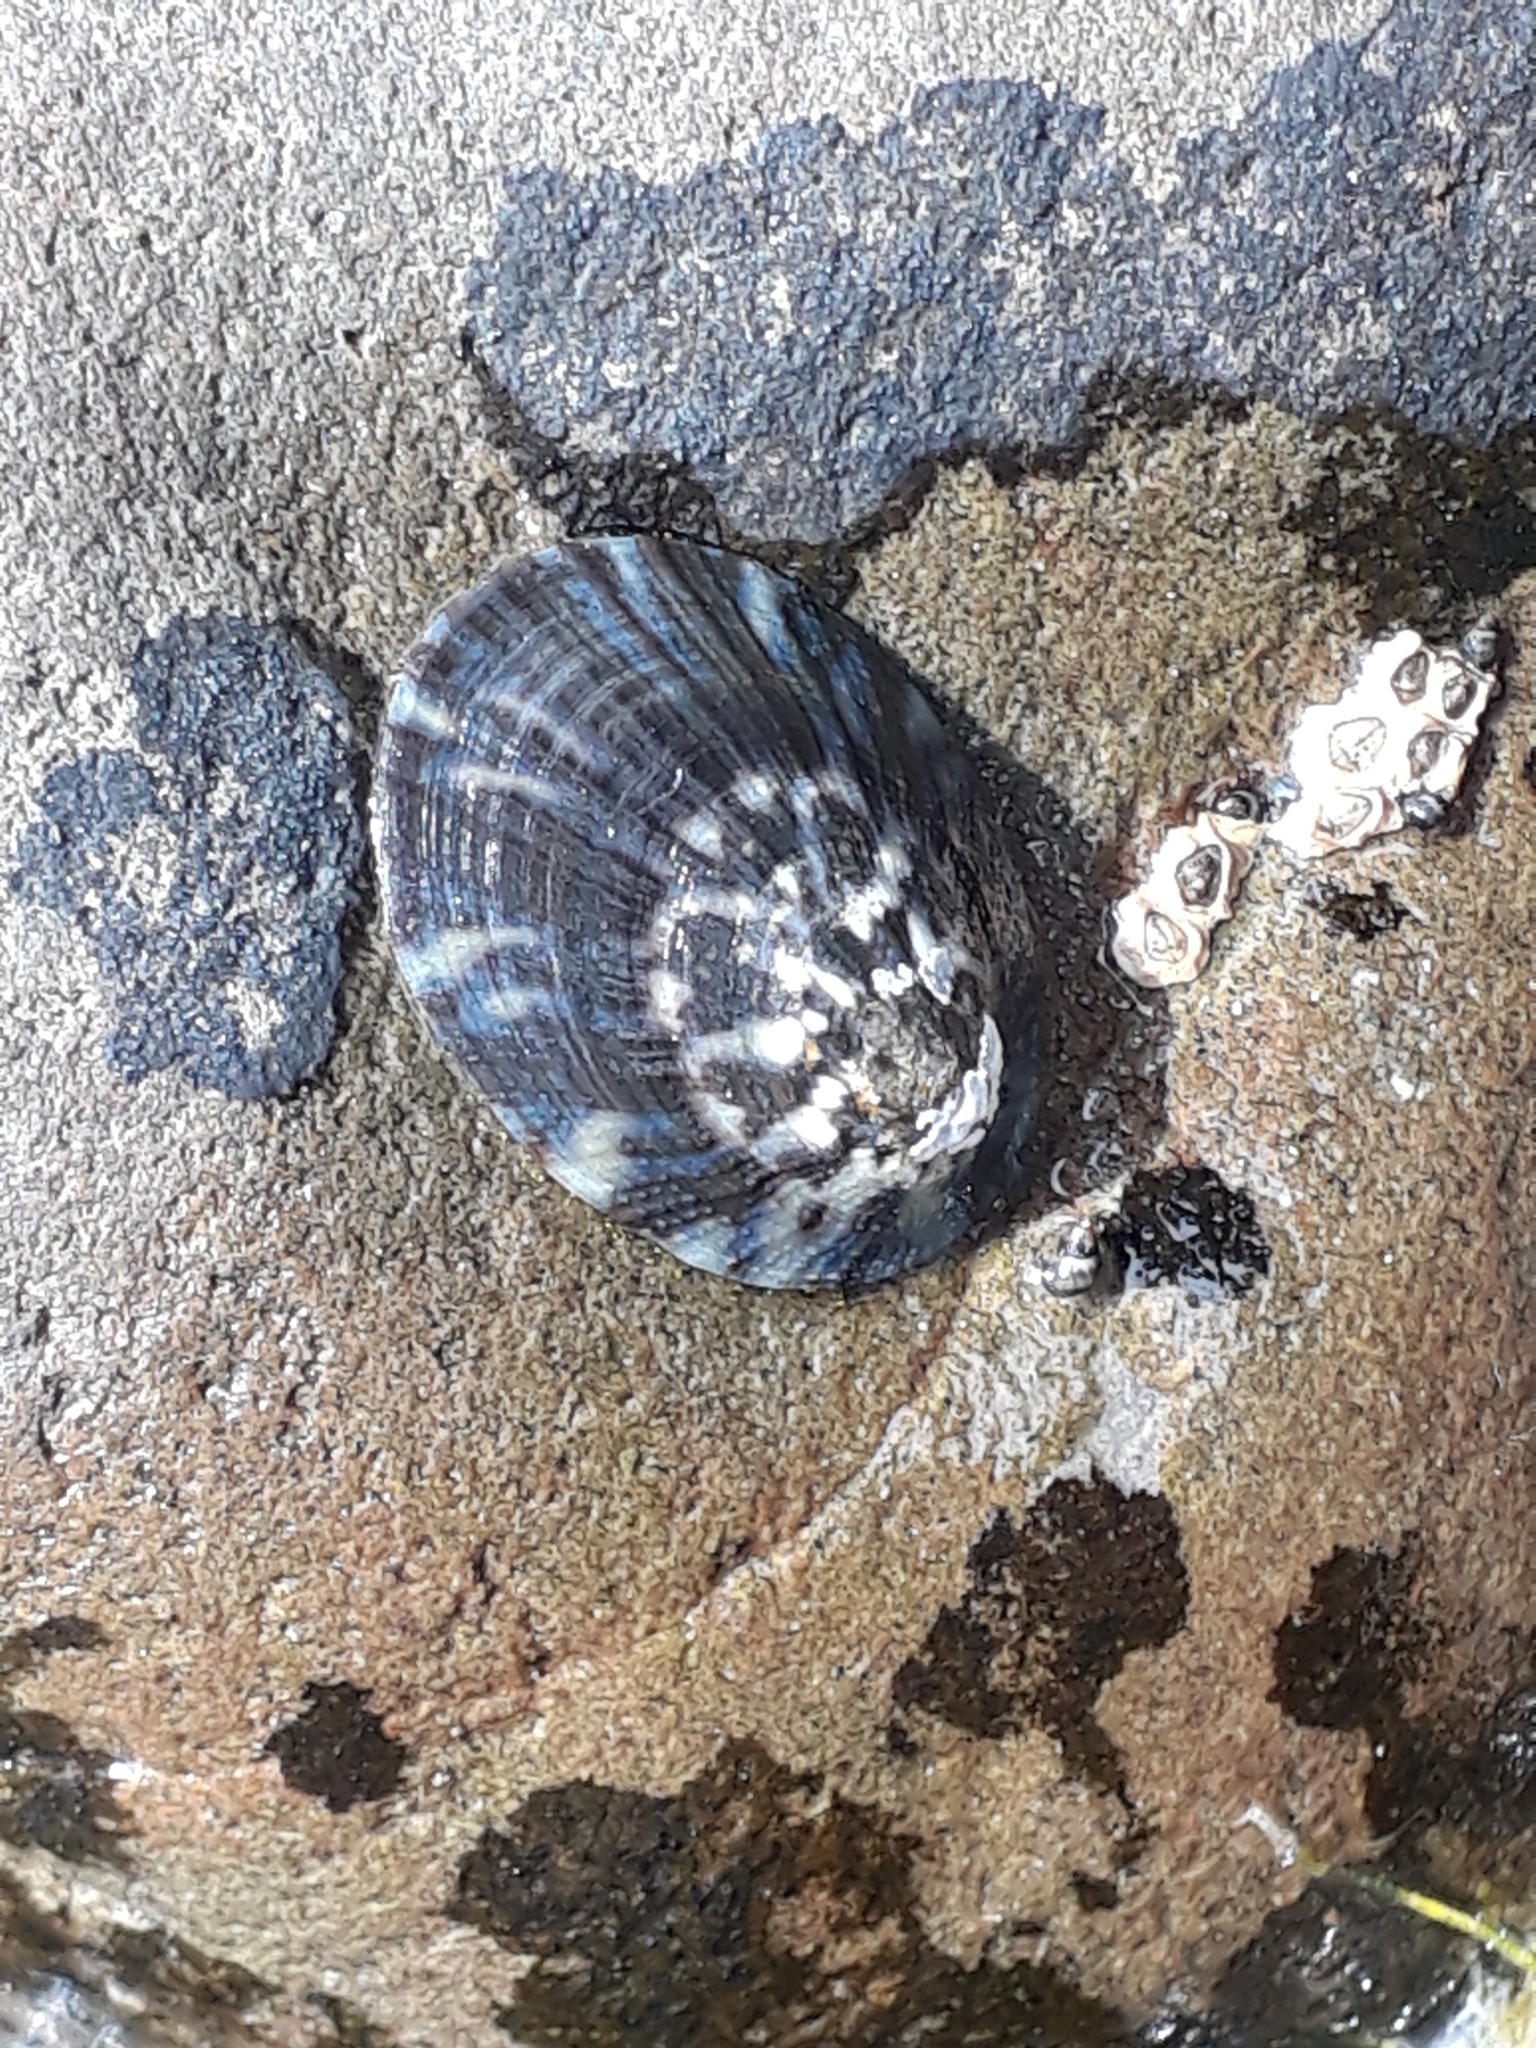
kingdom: Animalia
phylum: Mollusca
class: Gastropoda
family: Nacellidae
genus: Cellana
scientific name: Cellana radians
